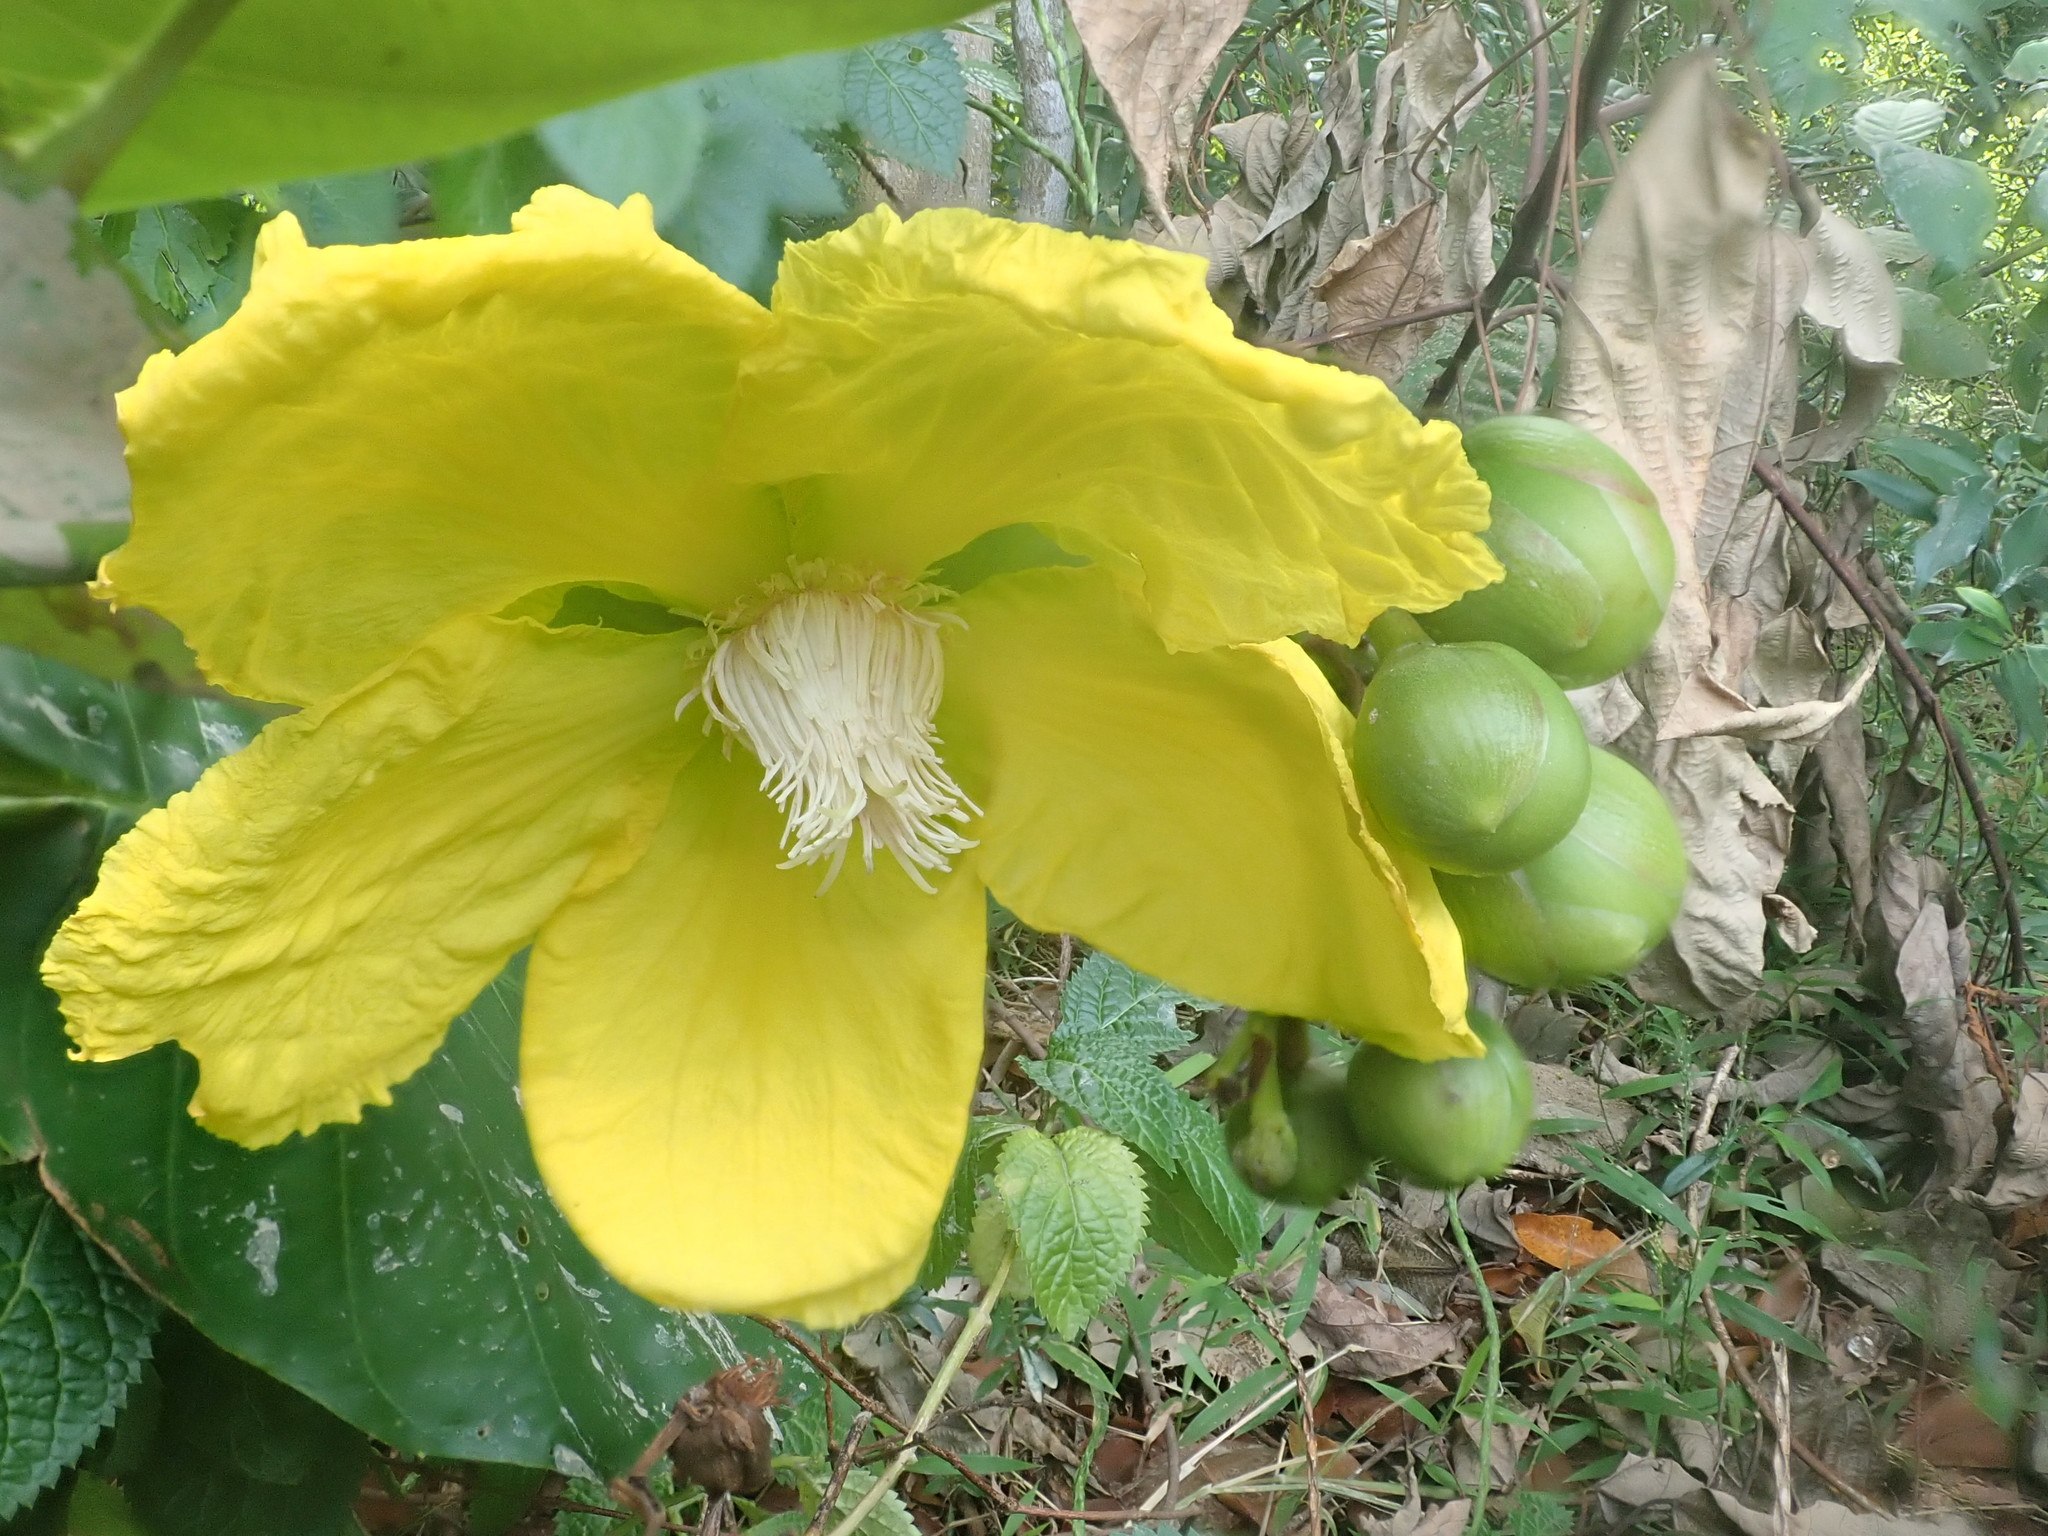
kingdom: Plantae
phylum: Tracheophyta
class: Magnoliopsida
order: Dilleniales
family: Dilleniaceae
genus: Dillenia
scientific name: Dillenia suffruticosa
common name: Shrubby dillenia
